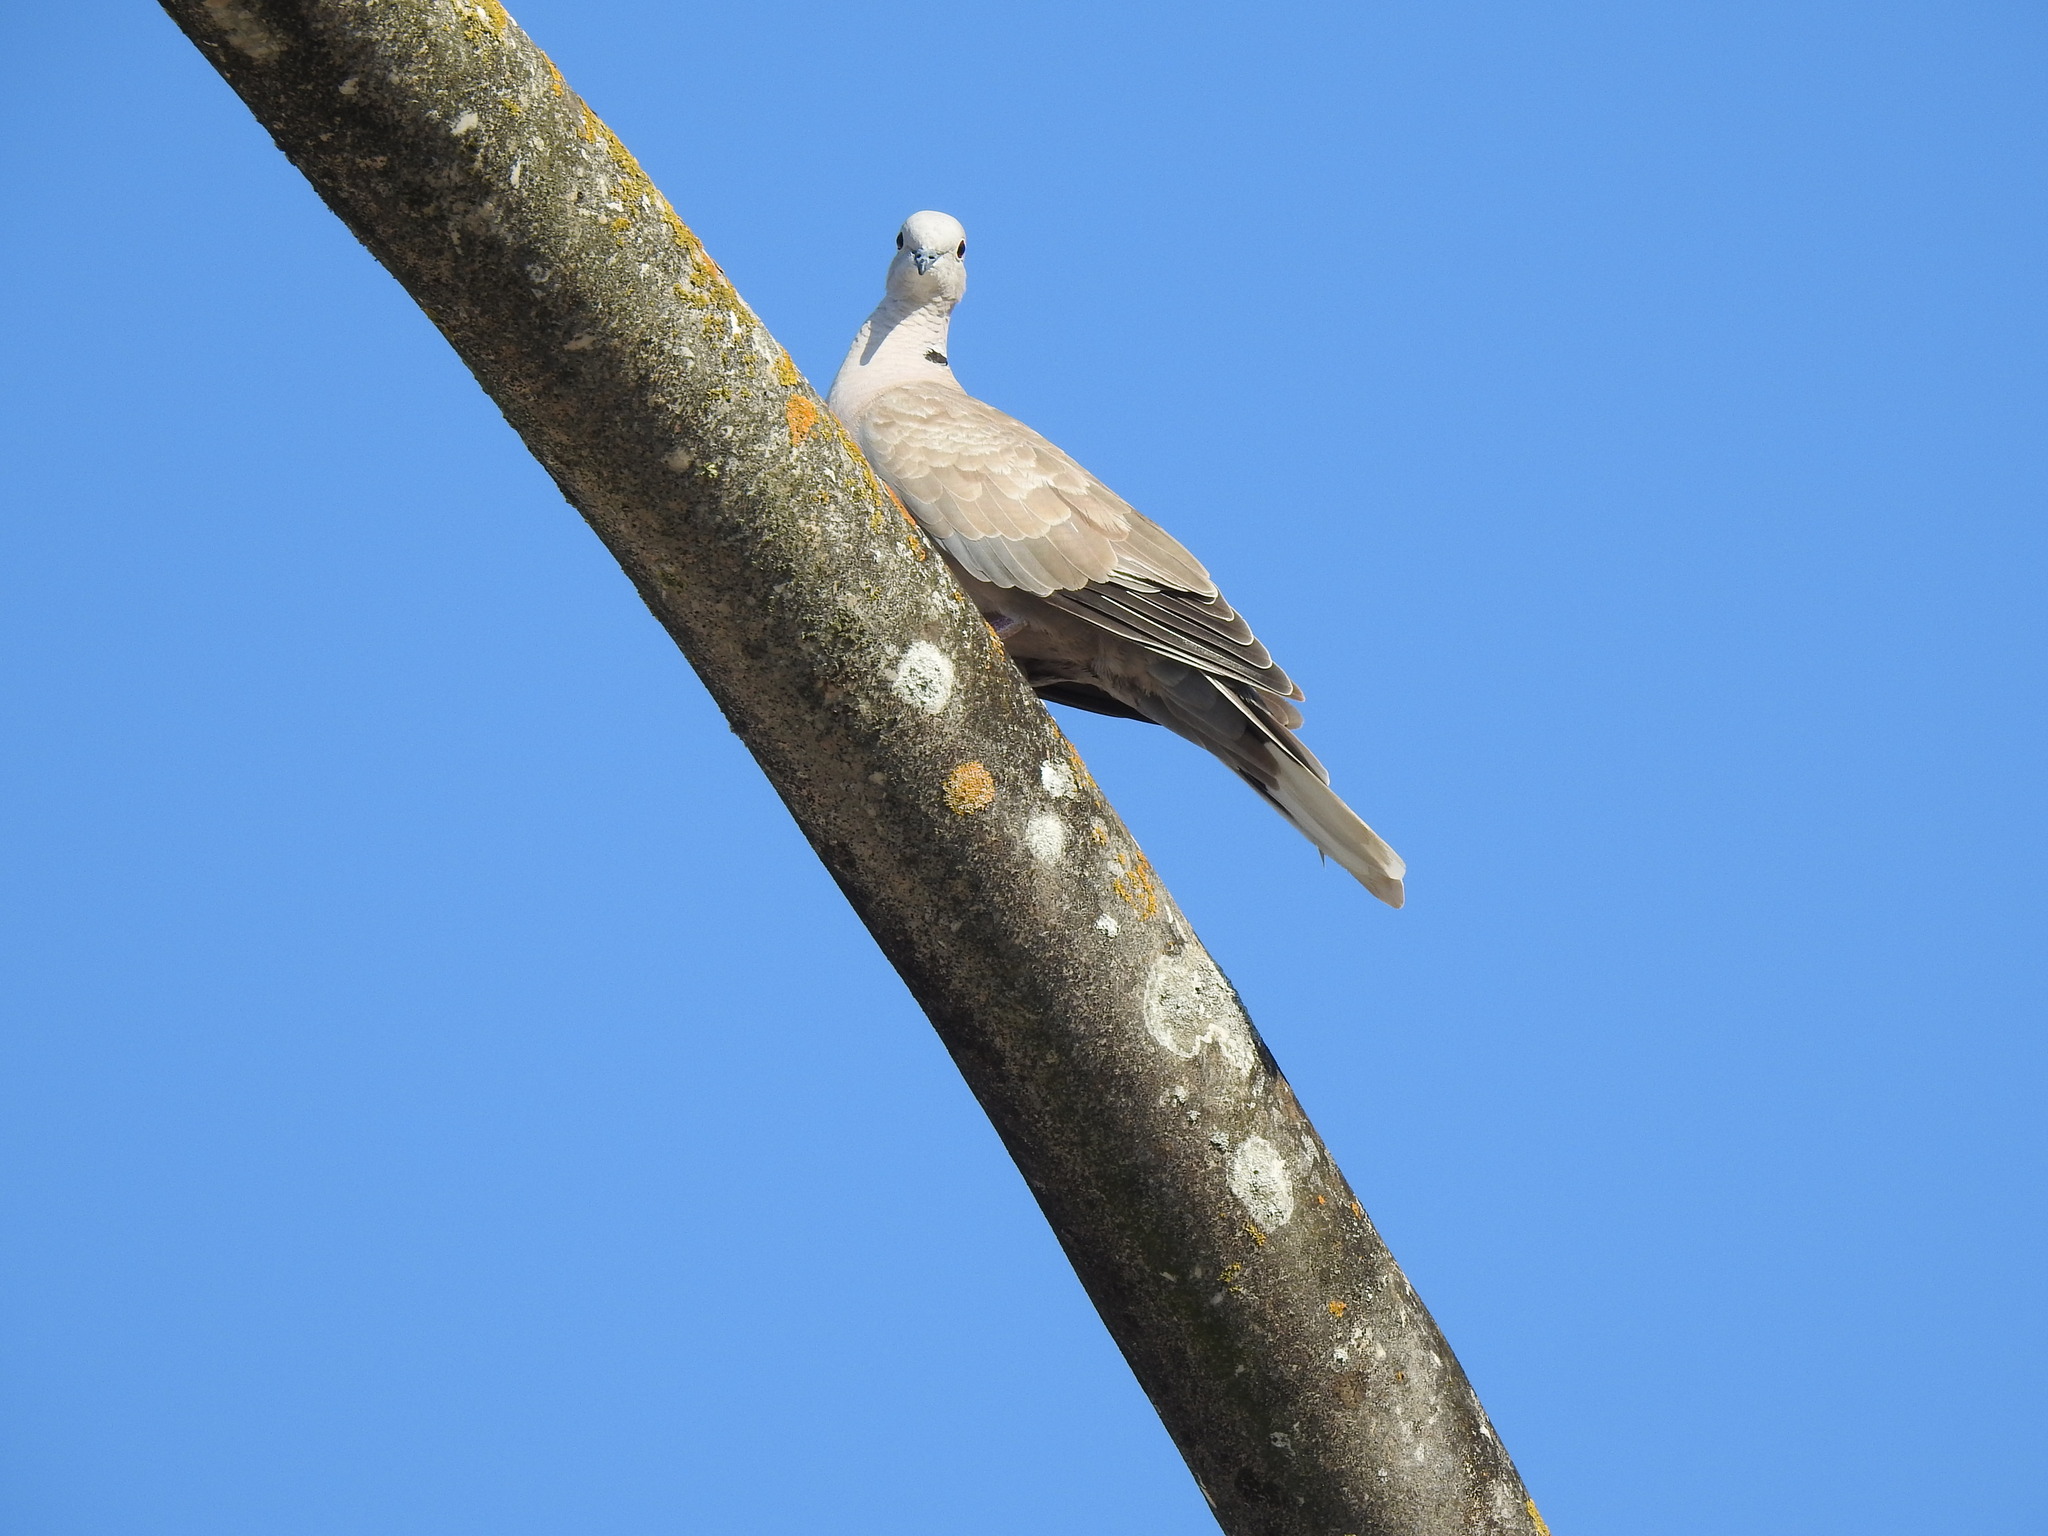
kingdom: Animalia
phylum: Chordata
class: Aves
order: Columbiformes
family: Columbidae
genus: Streptopelia
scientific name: Streptopelia decaocto
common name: Eurasian collared dove
